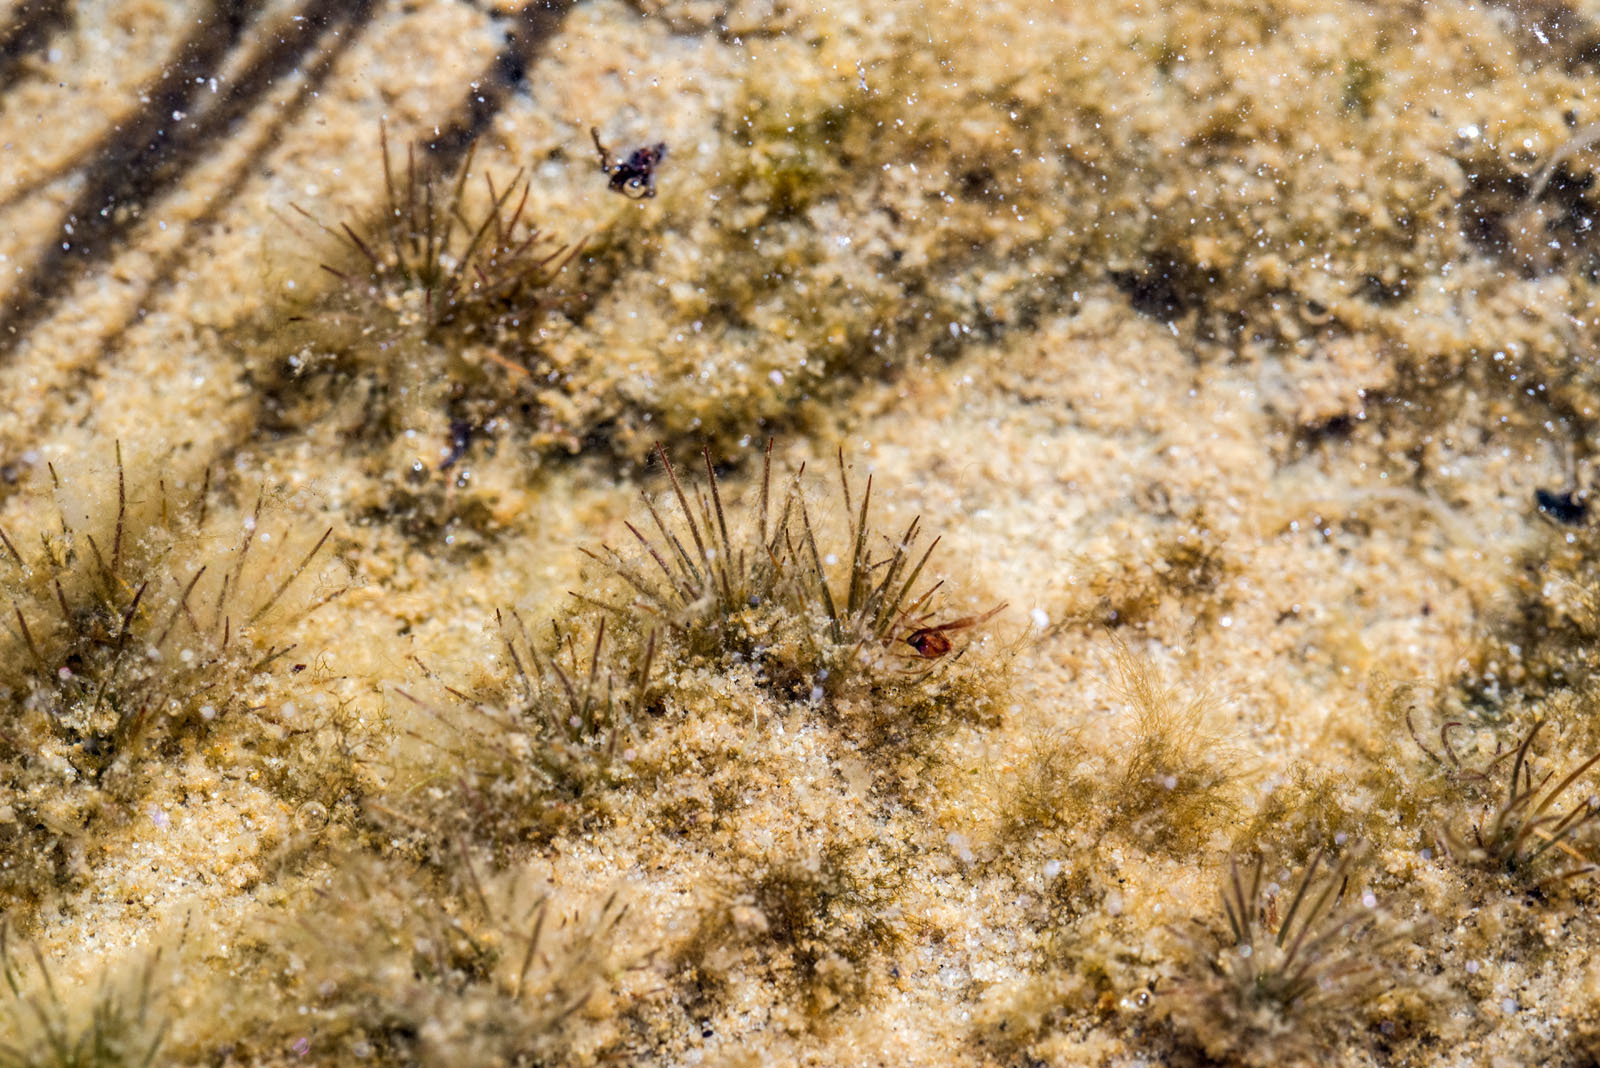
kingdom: Plantae
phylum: Tracheophyta
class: Magnoliopsida
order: Nymphaeales
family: Hydatellaceae
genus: Trithuria
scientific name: Trithuria inconspicua
